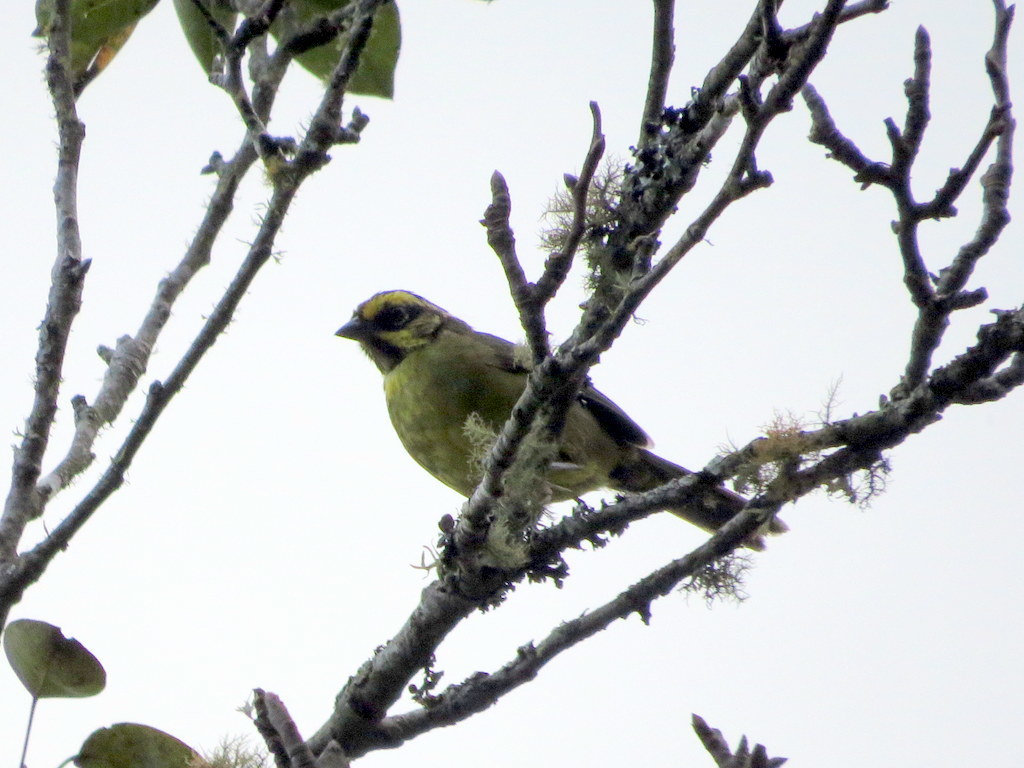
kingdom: Animalia
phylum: Chordata
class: Aves
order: Passeriformes
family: Passerellidae
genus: Atlapetes
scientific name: Atlapetes citrinellus
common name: Yellow-striped brushfinch
